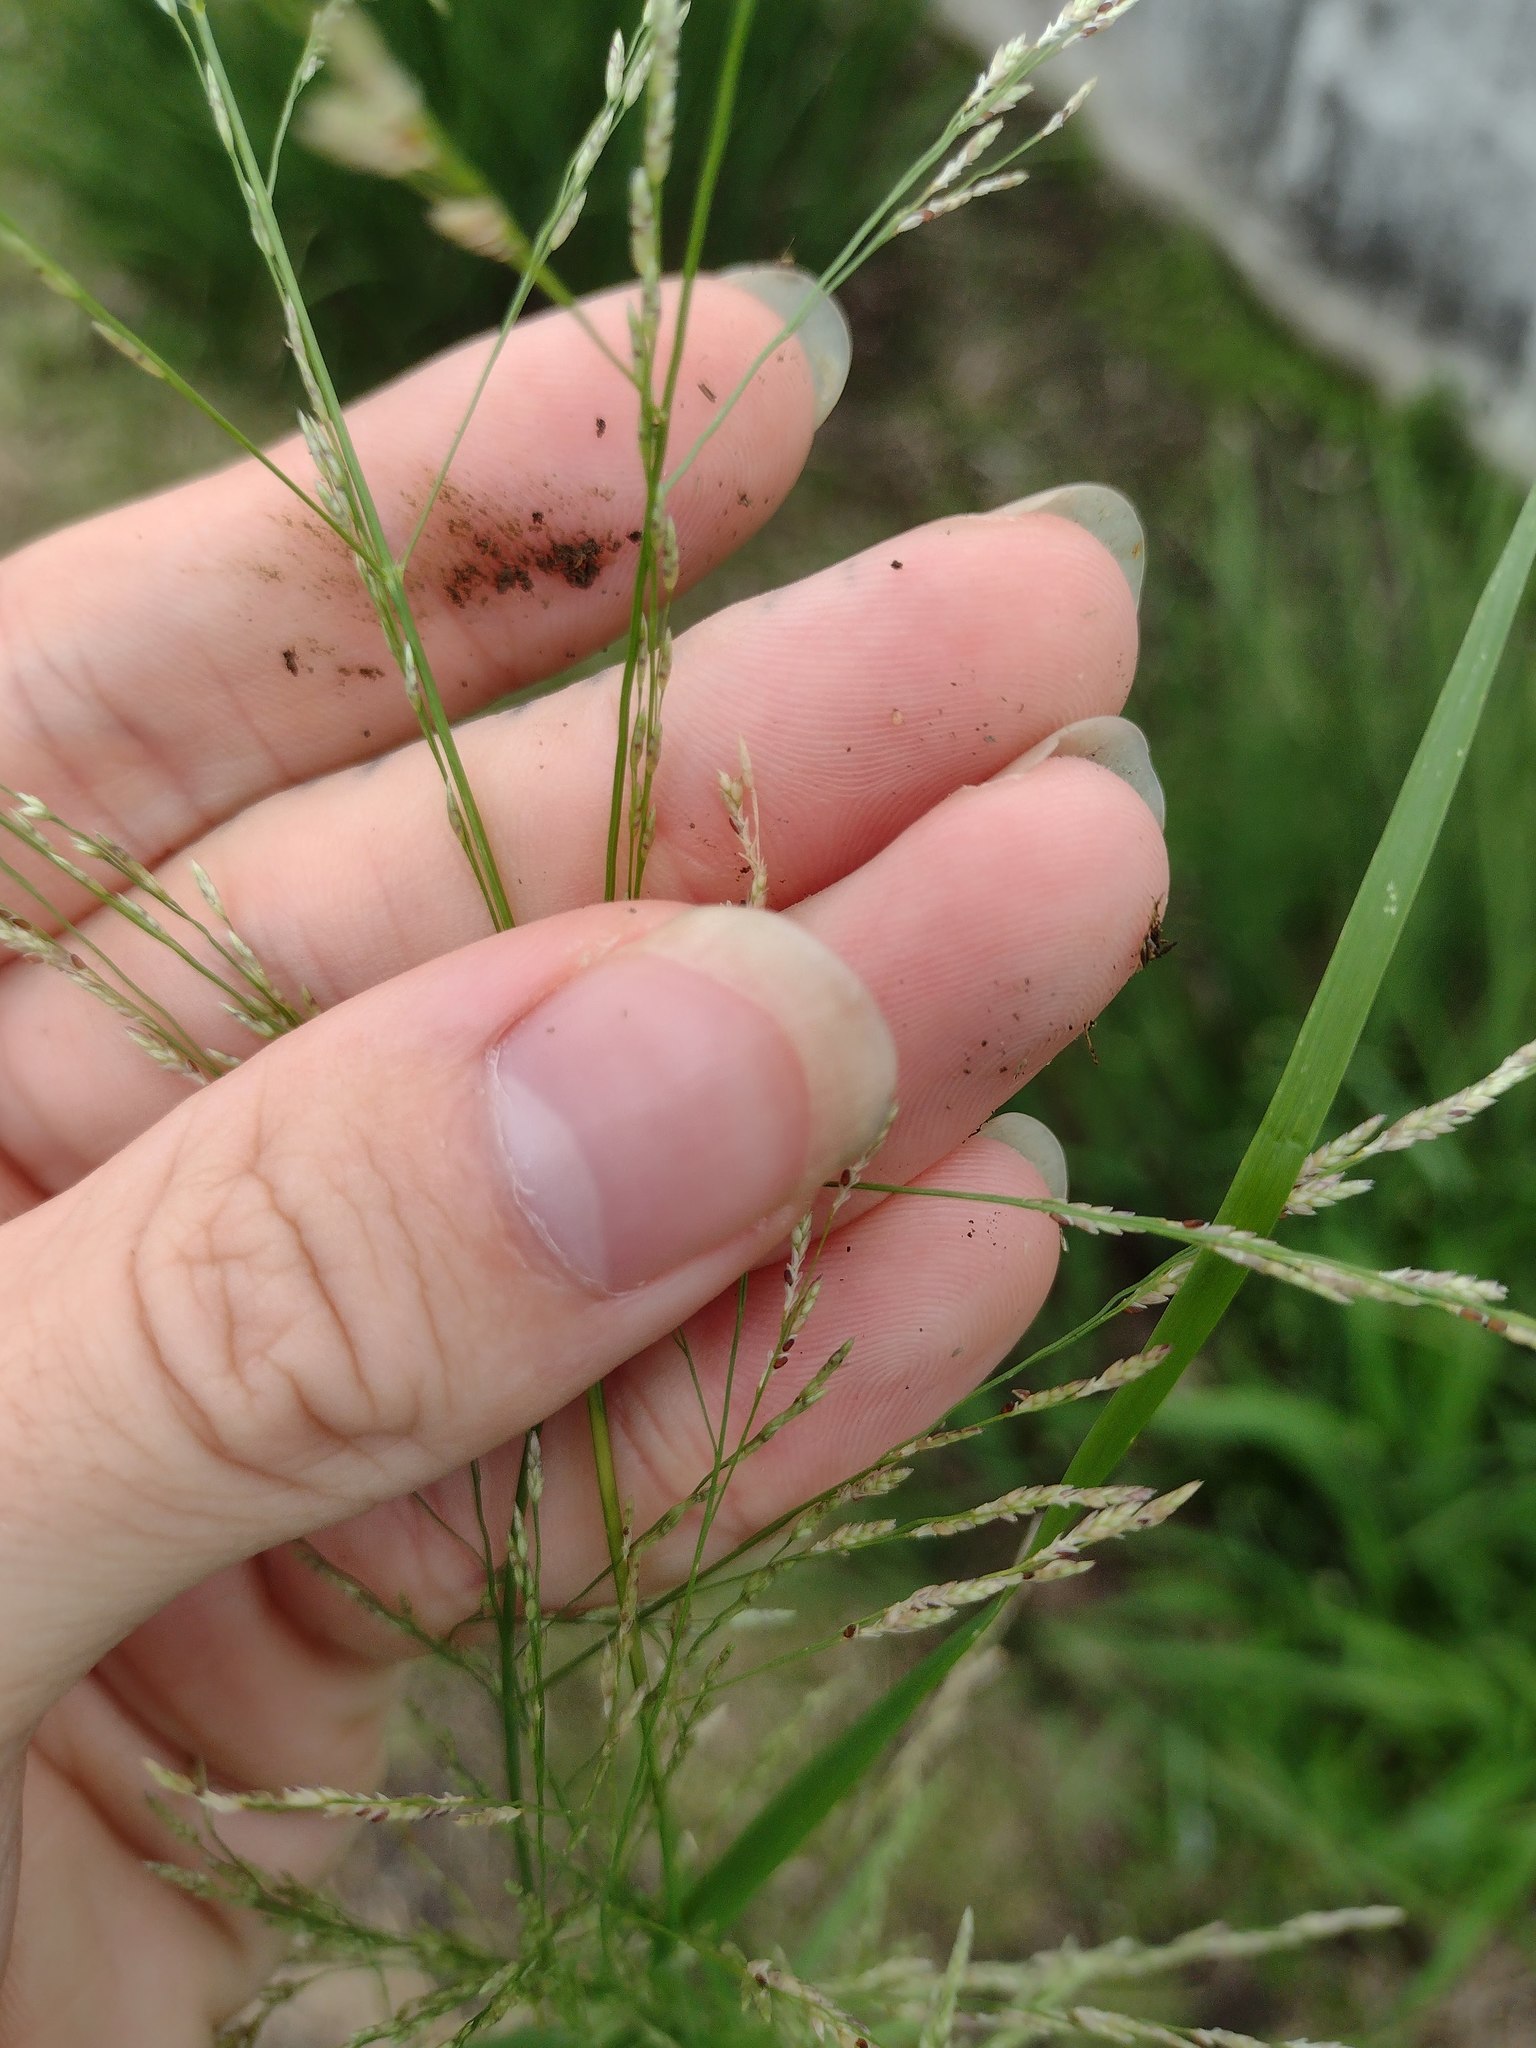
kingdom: Plantae
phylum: Tracheophyta
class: Liliopsida
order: Poales
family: Poaceae
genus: Eragrostis
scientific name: Eragrostis pilosa
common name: Indian lovegrass
